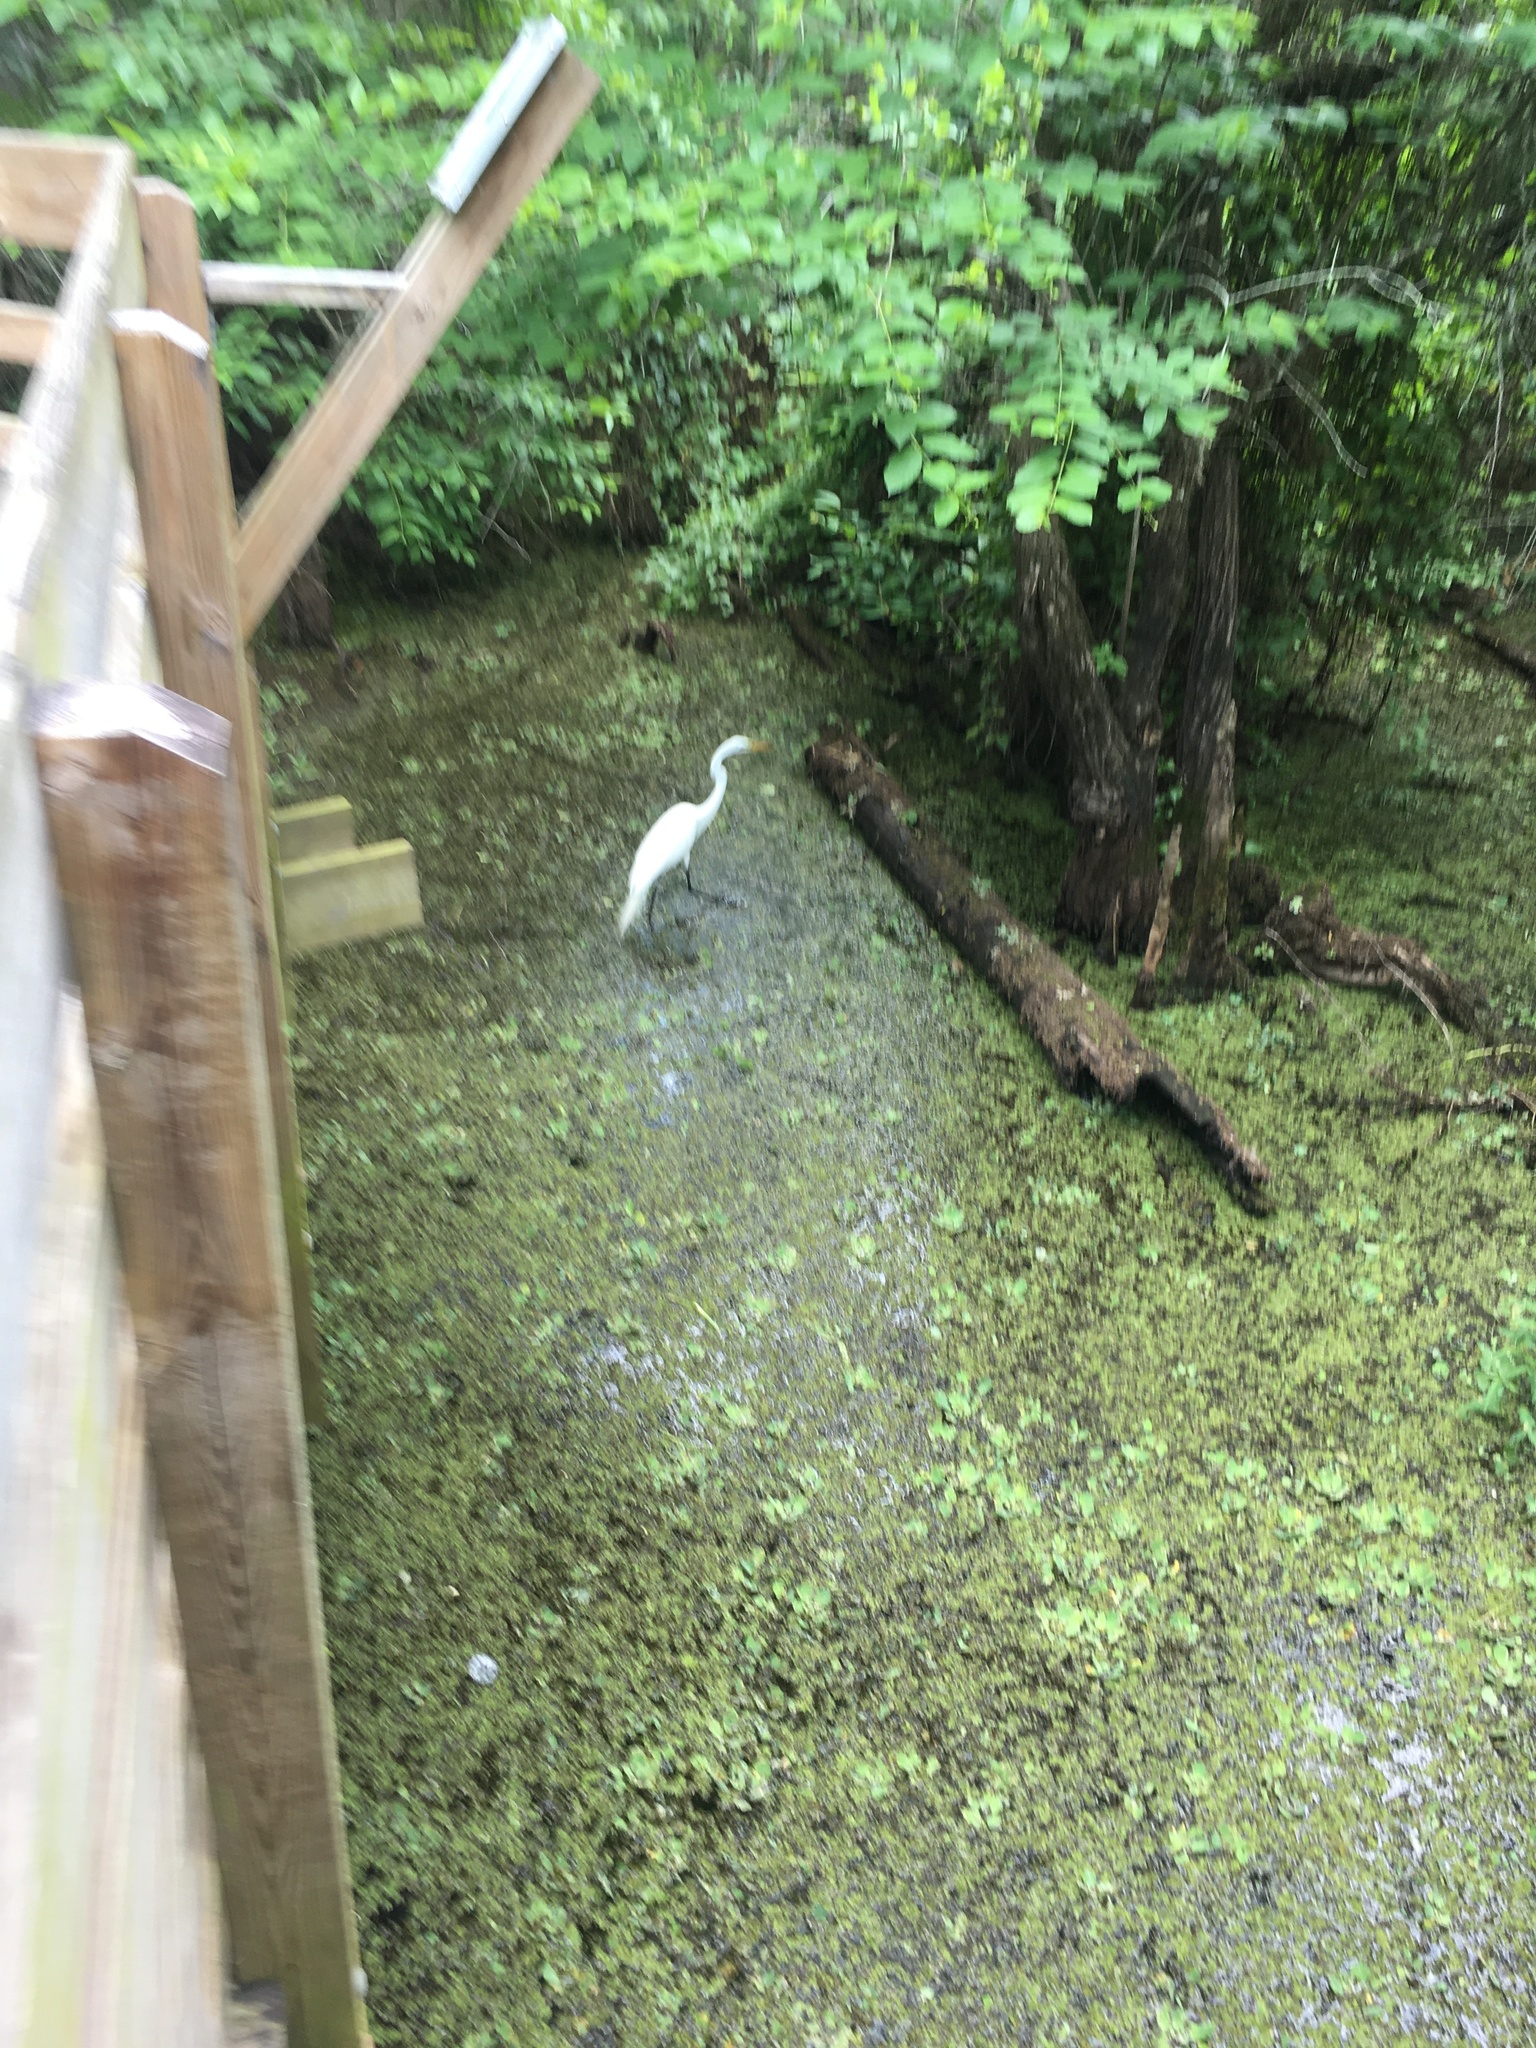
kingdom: Animalia
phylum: Chordata
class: Aves
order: Pelecaniformes
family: Ardeidae
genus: Ardea
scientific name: Ardea alba
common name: Great egret
